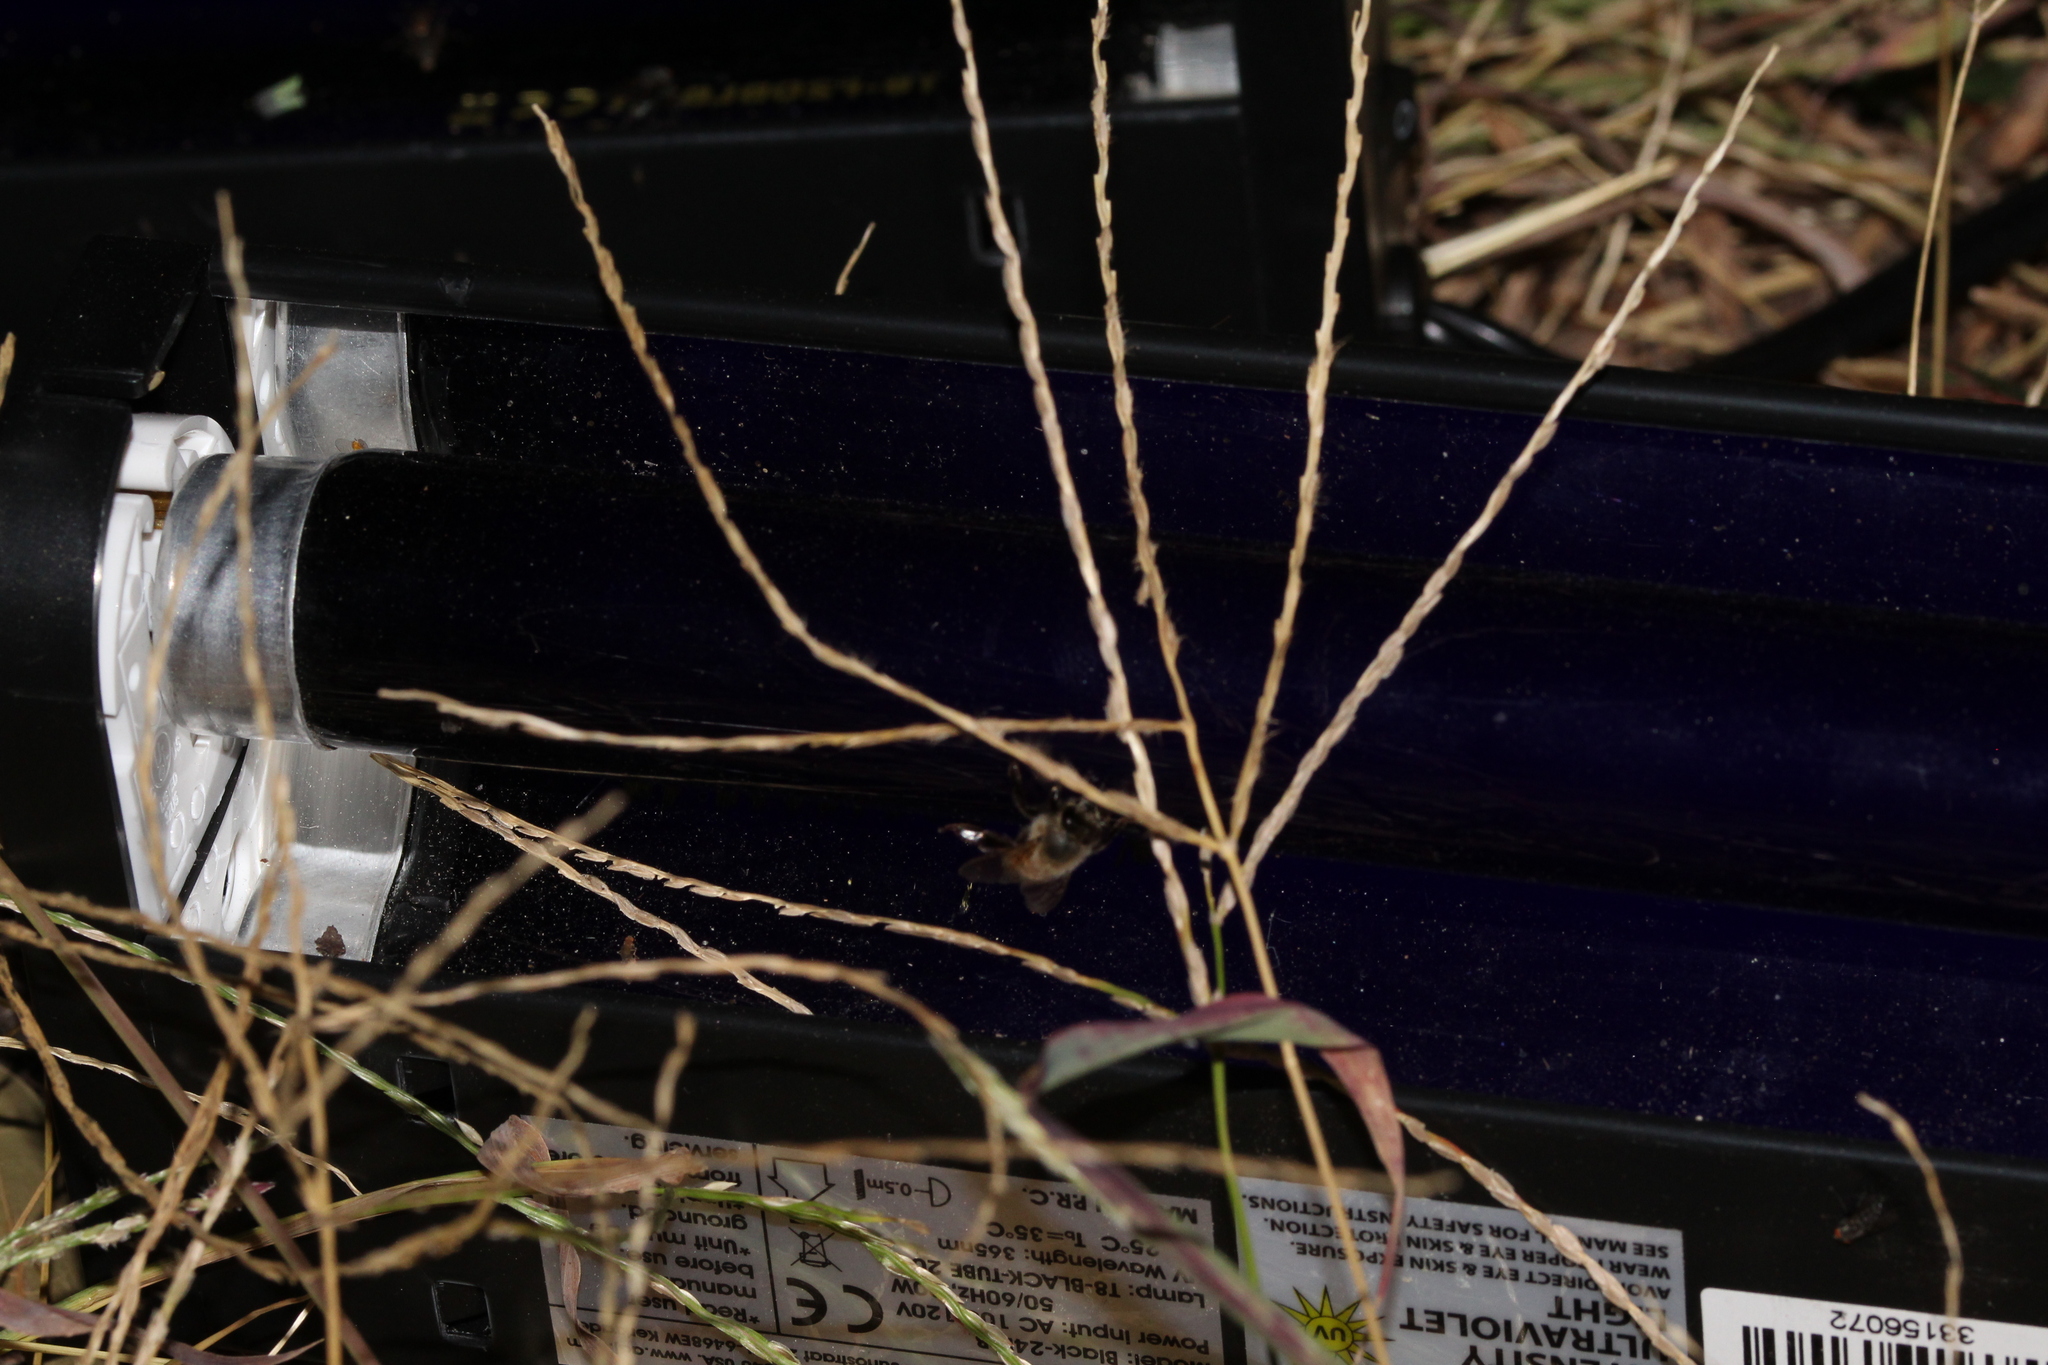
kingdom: Animalia
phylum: Arthropoda
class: Insecta
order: Hymenoptera
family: Apidae
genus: Apis
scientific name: Apis mellifera
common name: Honey bee
